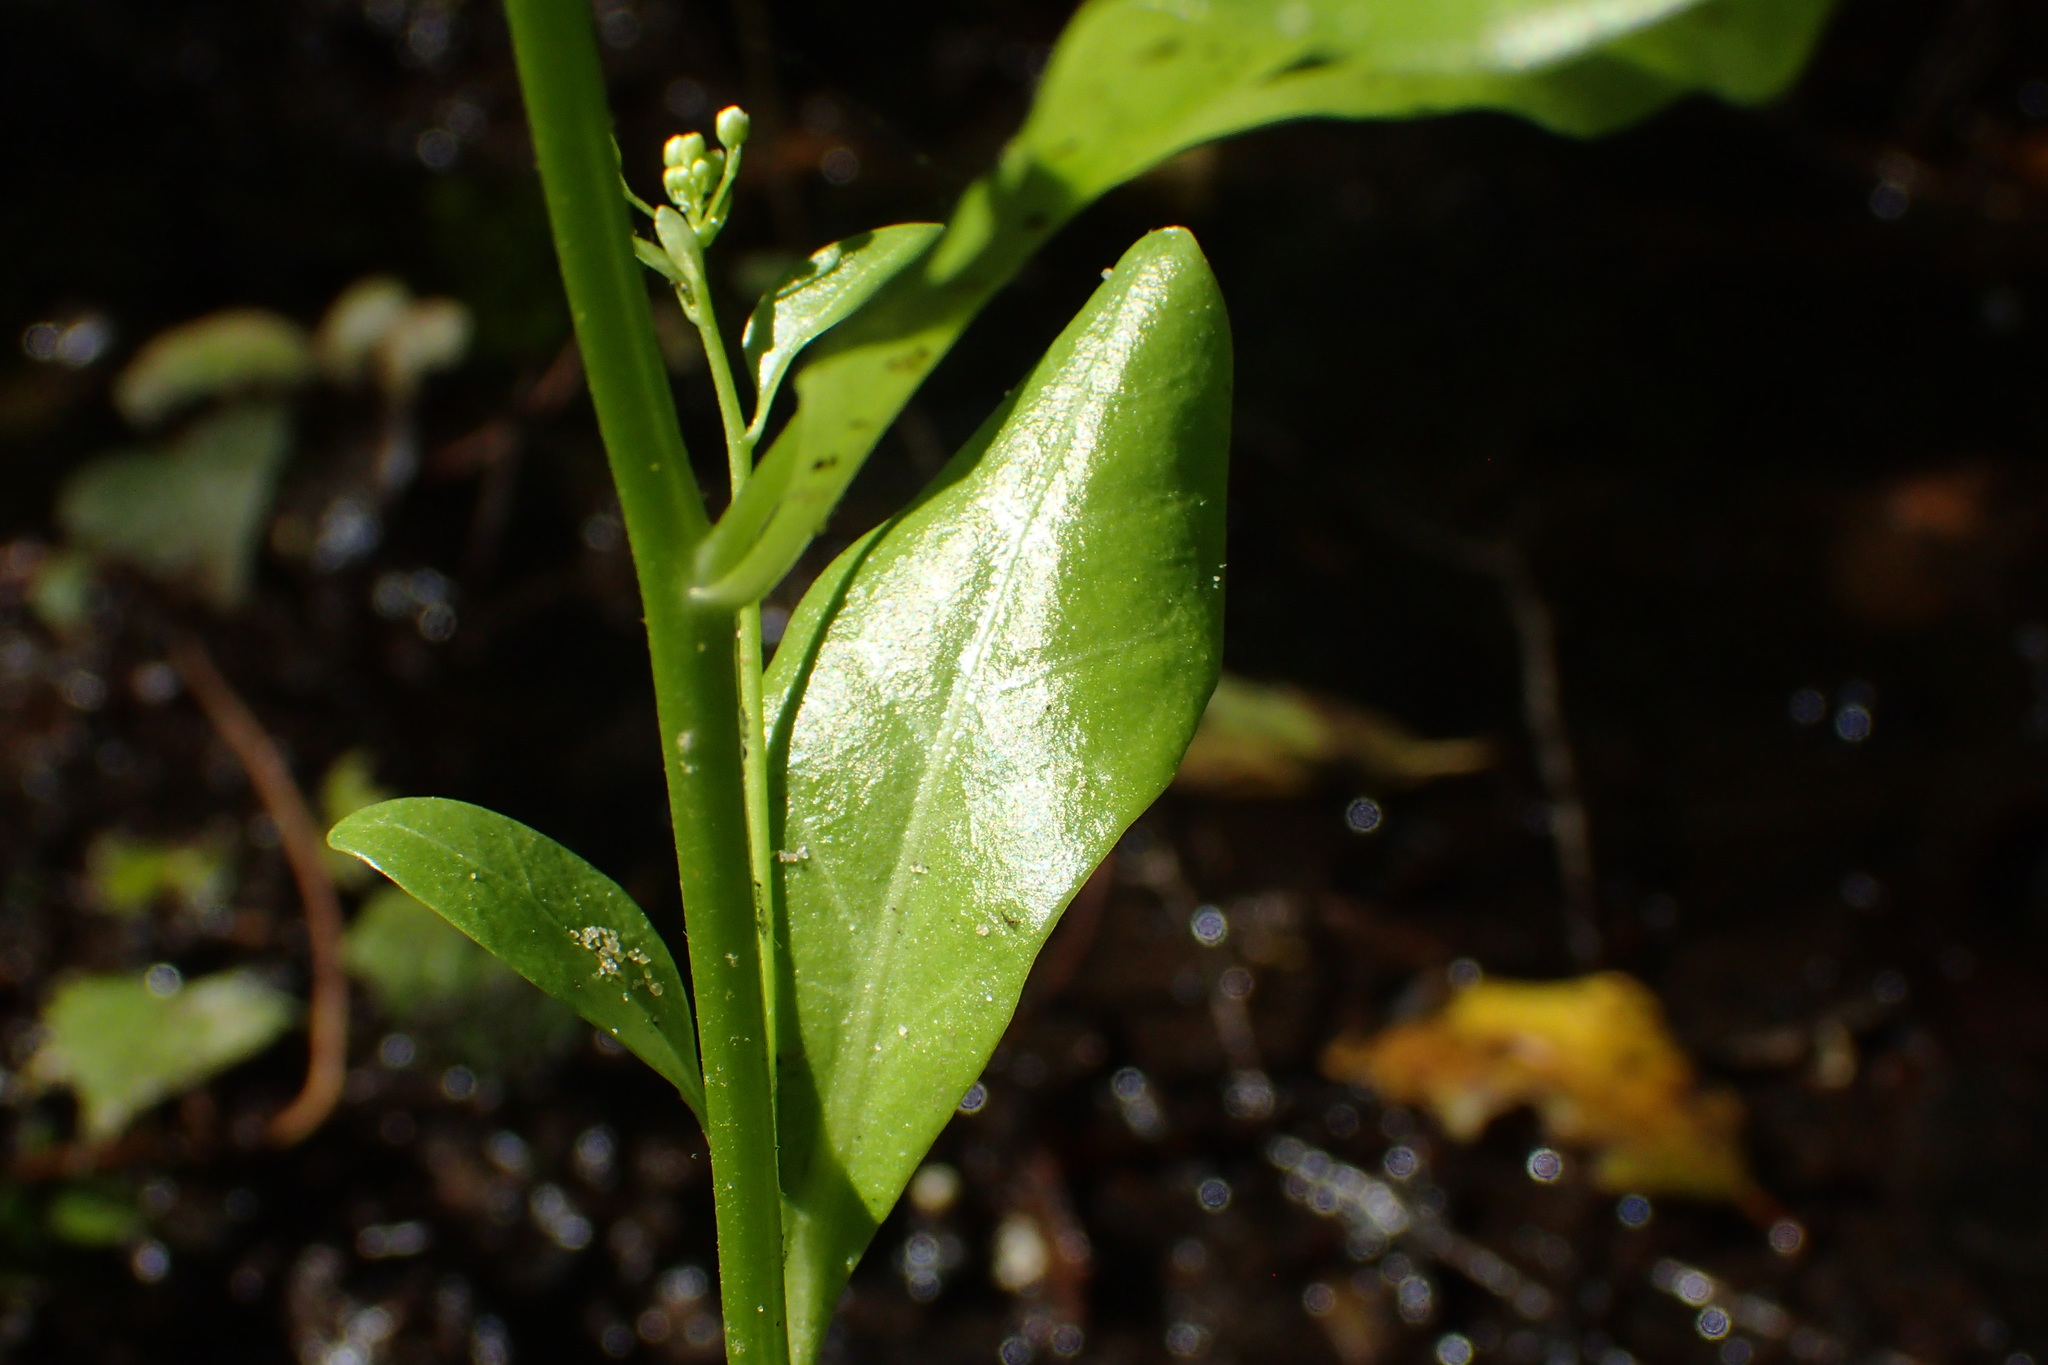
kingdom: Plantae
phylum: Tracheophyta
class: Magnoliopsida
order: Ericales
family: Primulaceae
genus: Samolus
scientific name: Samolus parviflorus
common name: False water pimpernel
